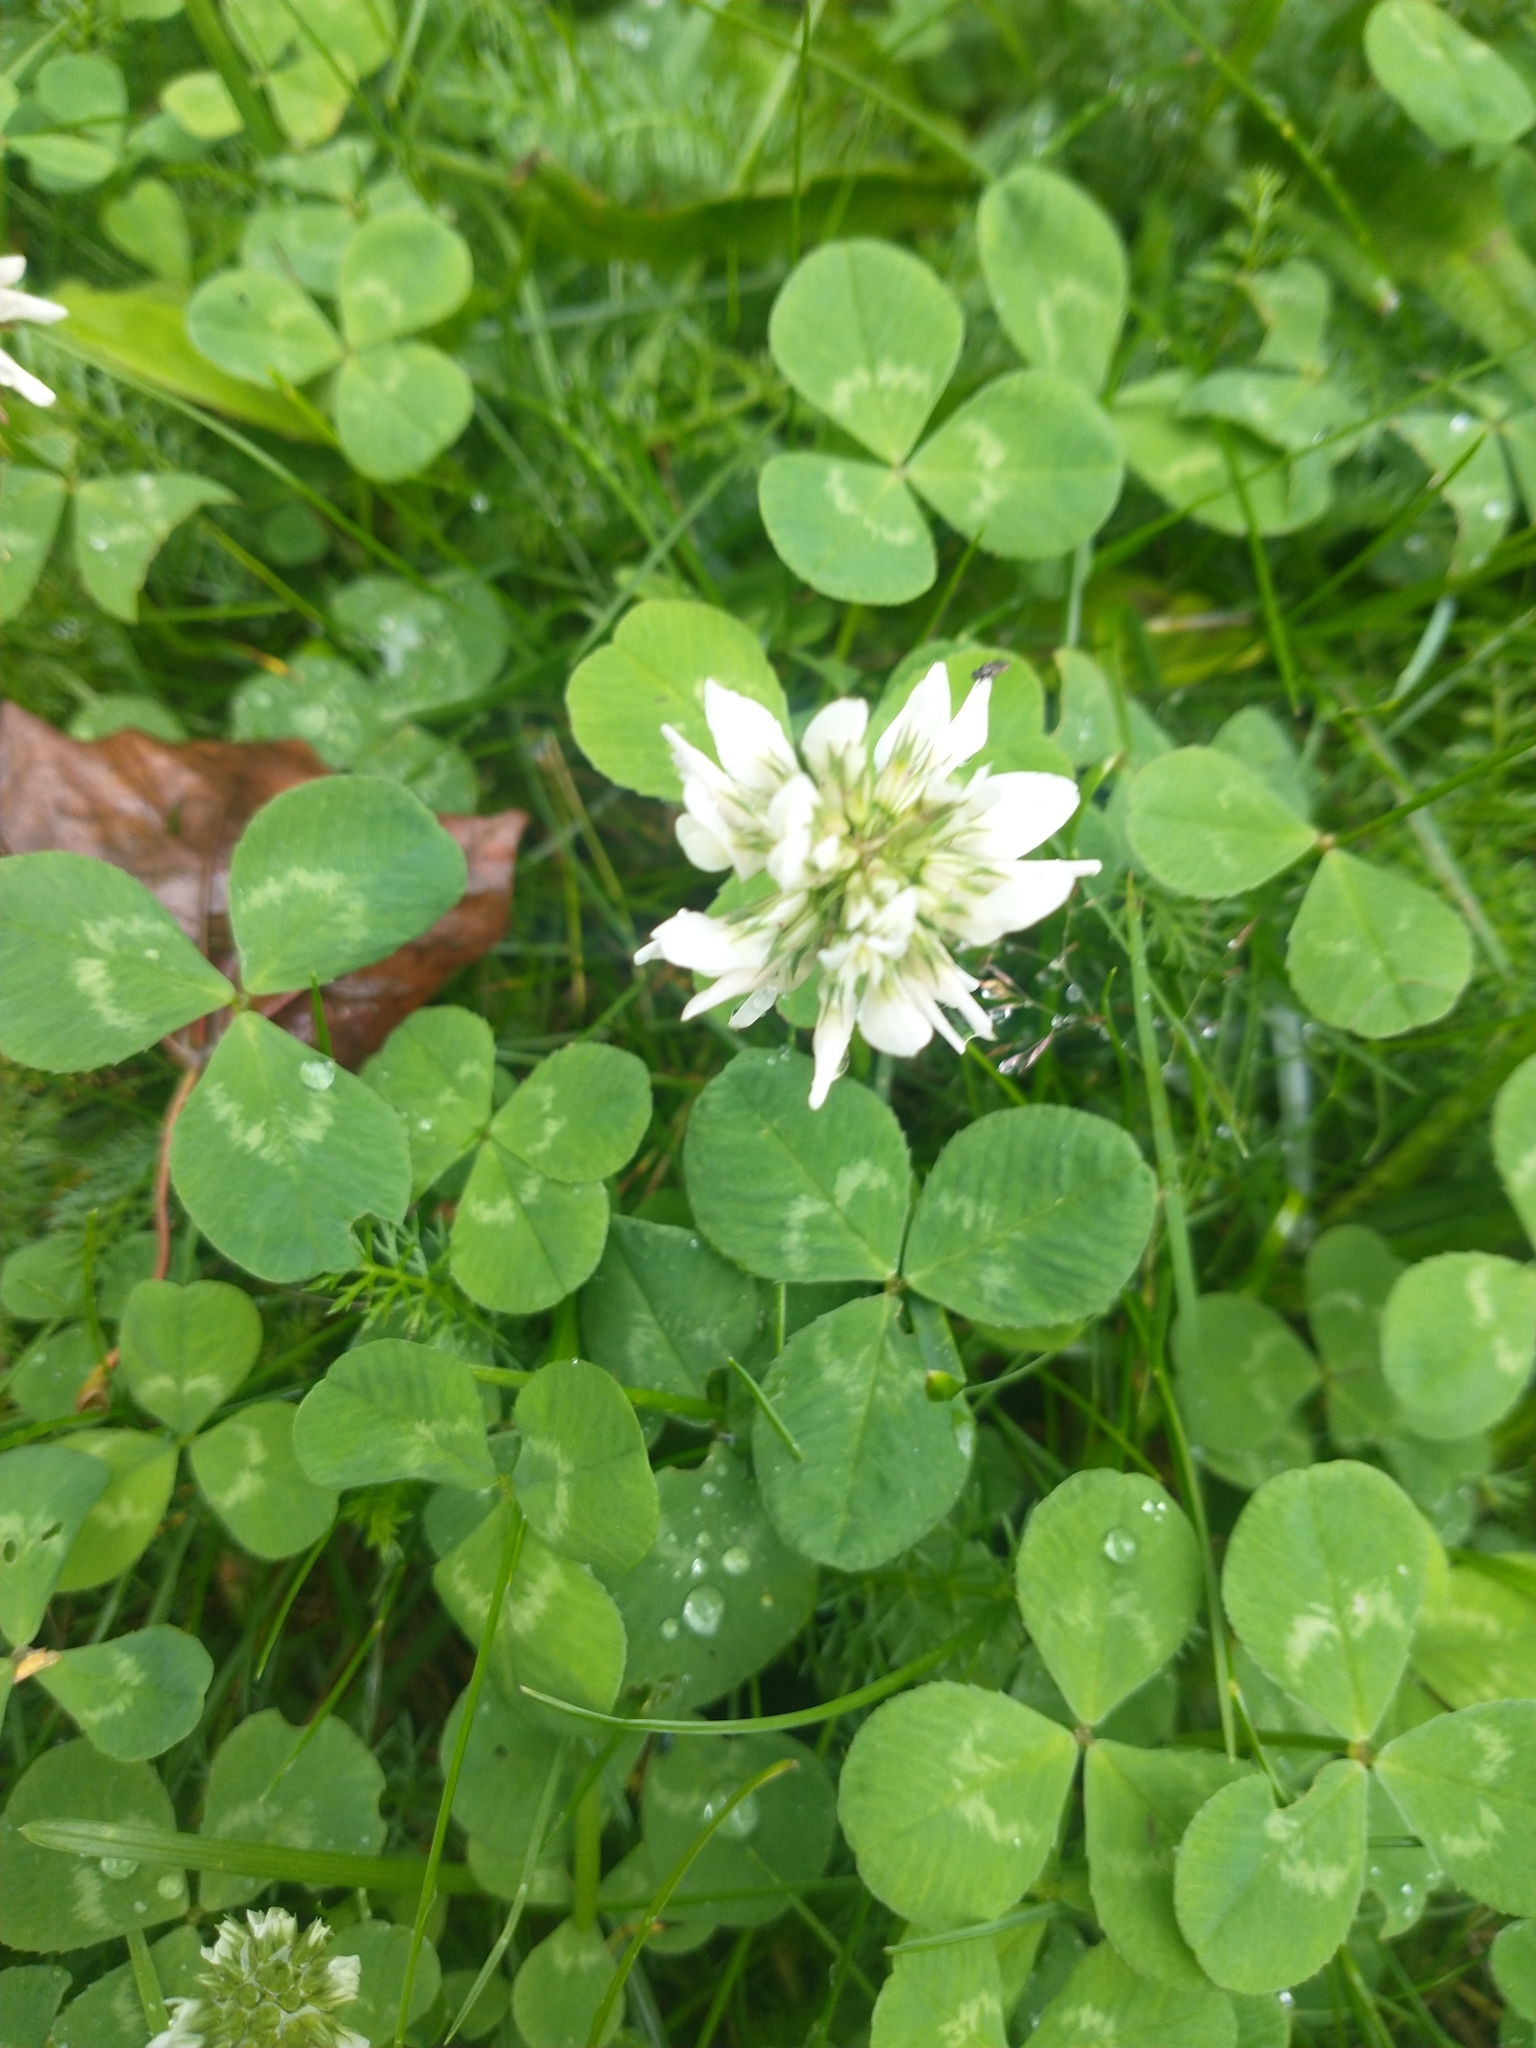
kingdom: Plantae
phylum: Tracheophyta
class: Magnoliopsida
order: Fabales
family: Fabaceae
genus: Trifolium
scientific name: Trifolium repens
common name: White clover
